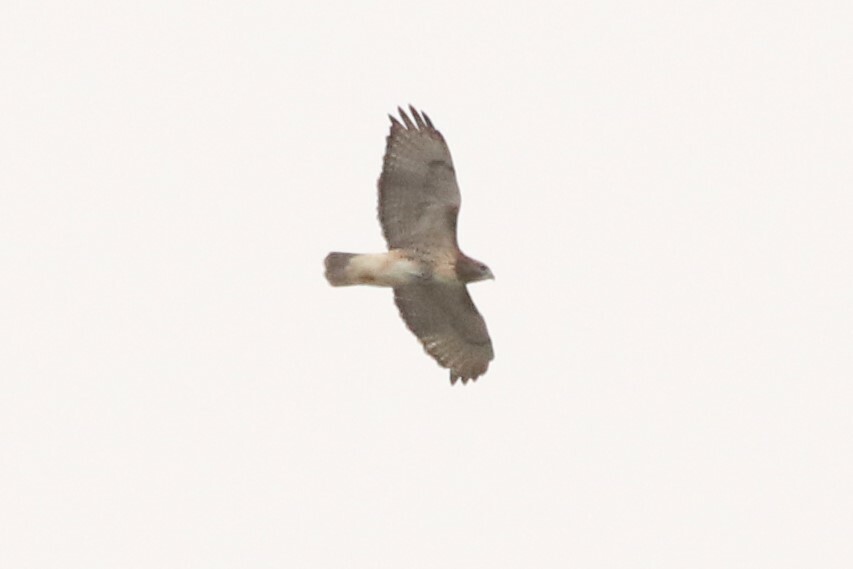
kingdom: Animalia
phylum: Chordata
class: Aves
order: Accipitriformes
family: Accipitridae
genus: Buteo
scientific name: Buteo jamaicensis
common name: Red-tailed hawk
